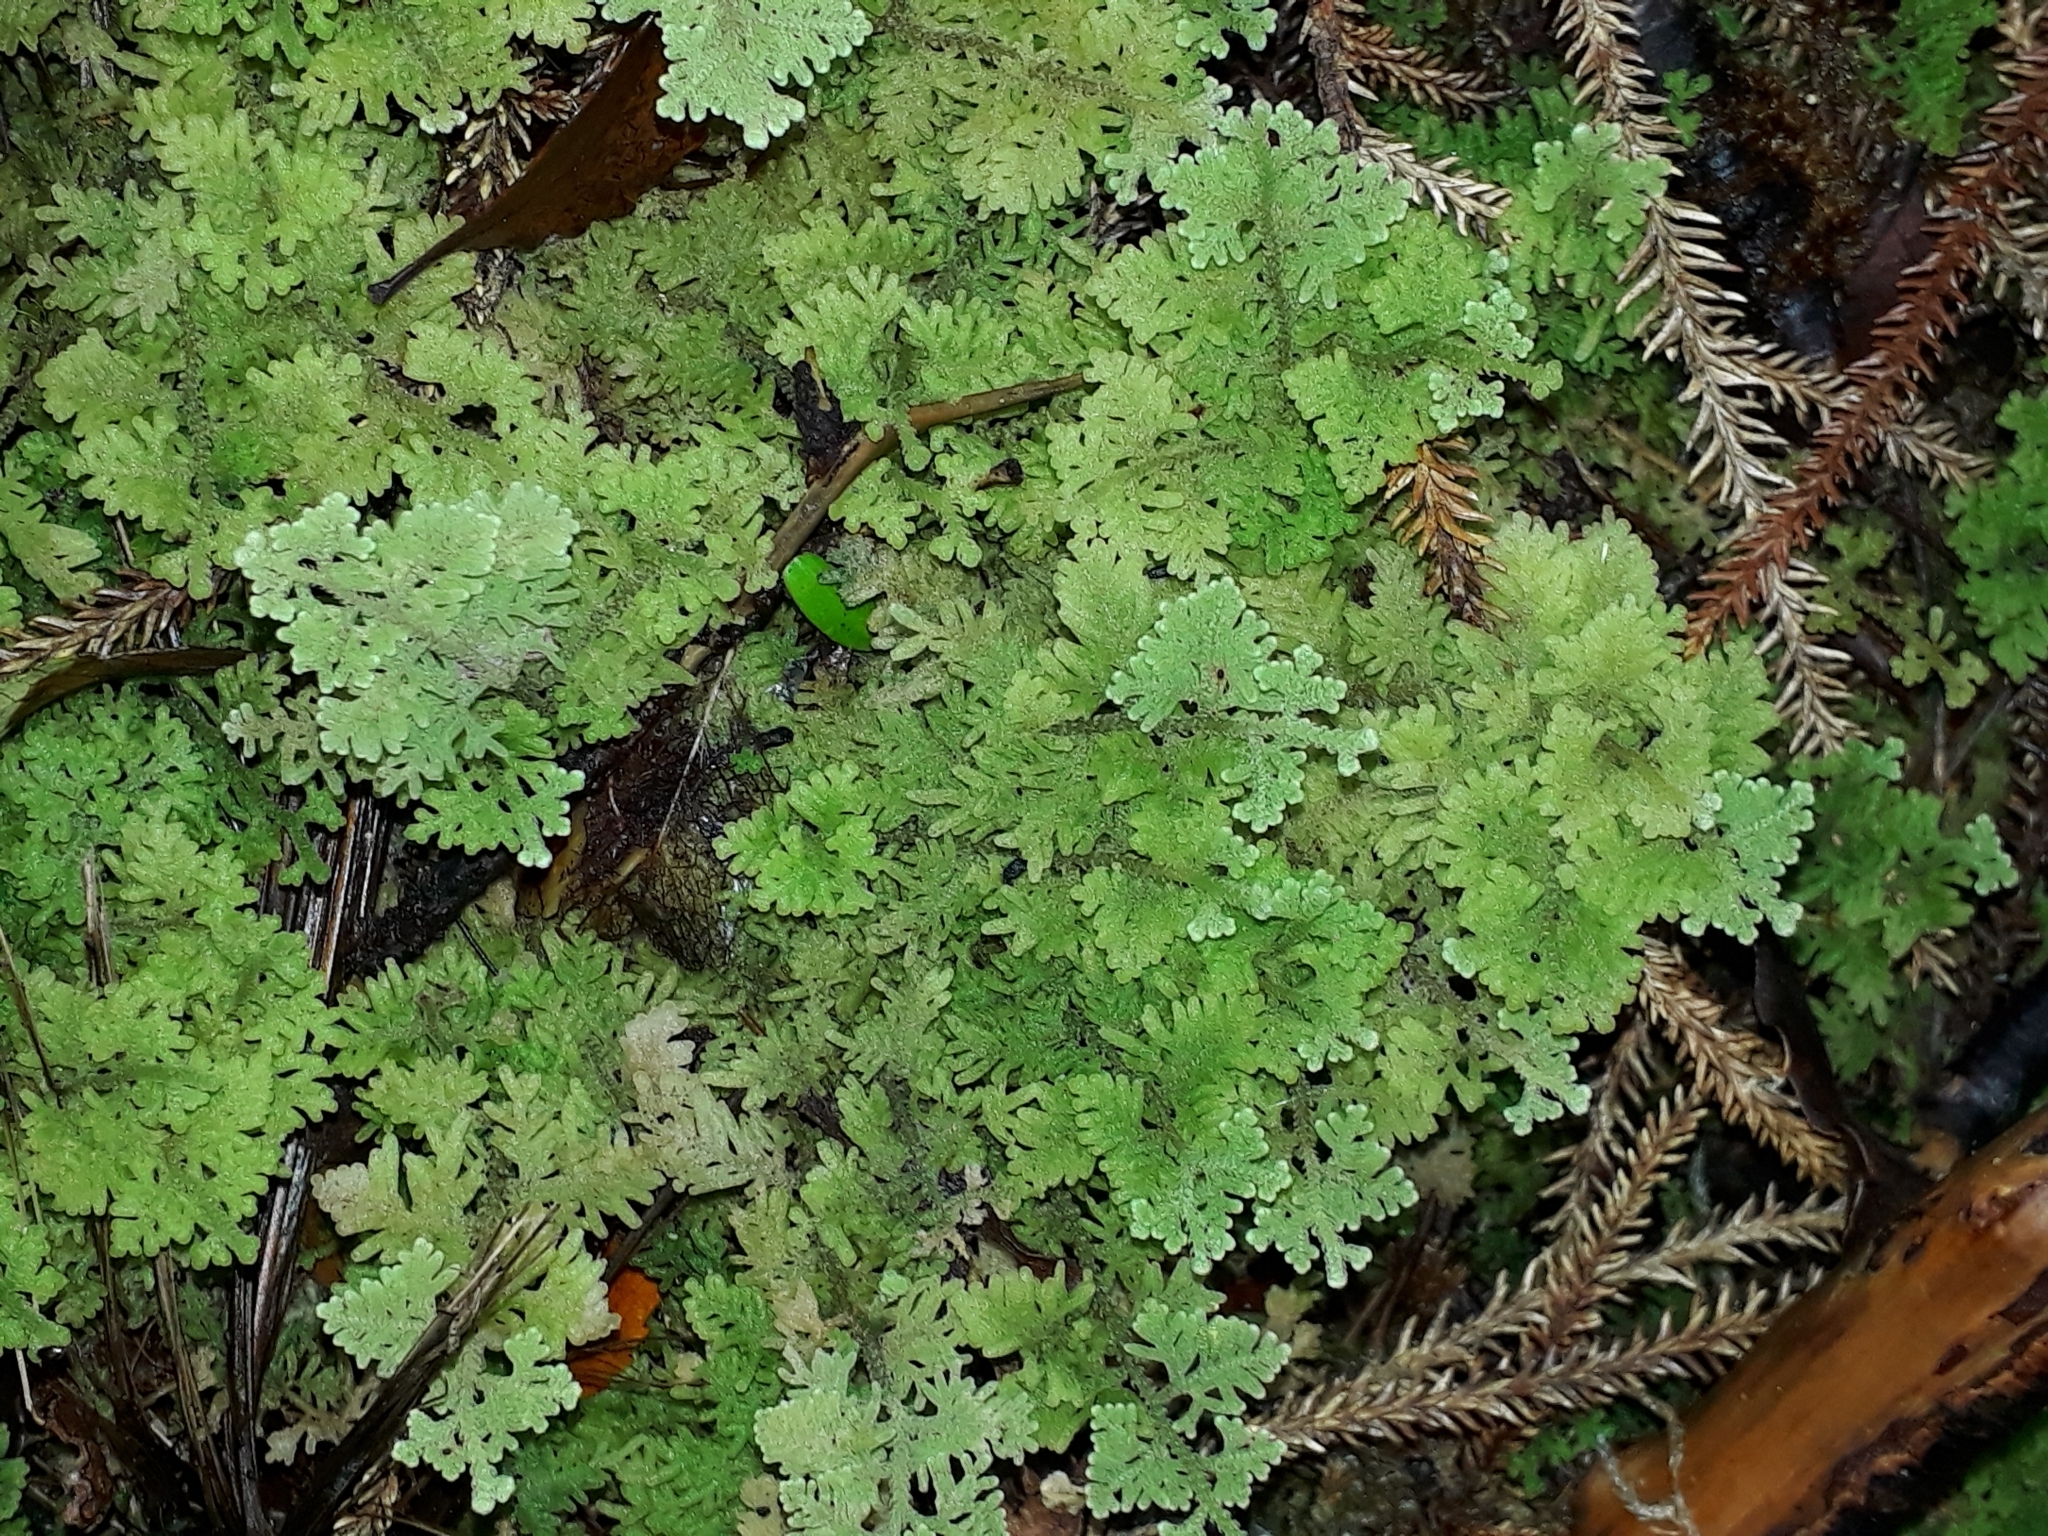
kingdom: Plantae
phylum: Marchantiophyta
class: Jungermanniopsida
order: Jungermanniales
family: Trichocoleaceae
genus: Trichocolea
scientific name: Trichocolea mollissima
